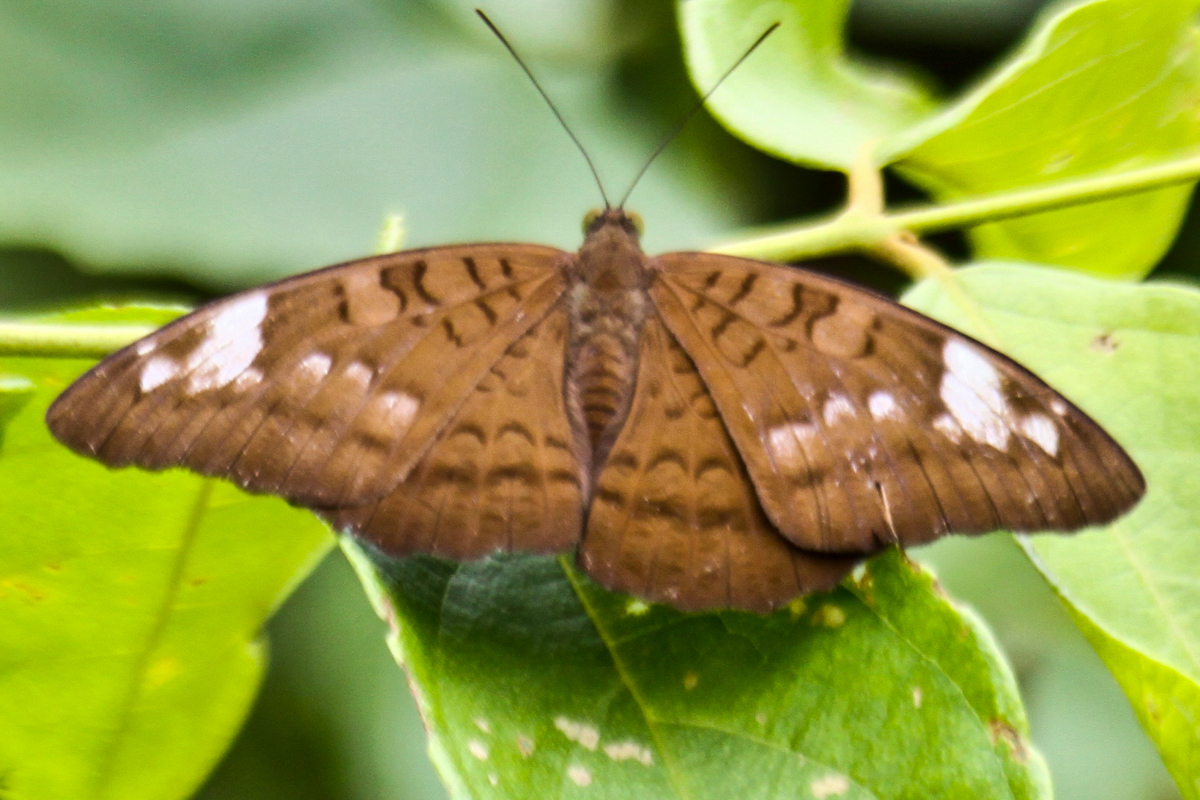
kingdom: Animalia
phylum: Arthropoda
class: Insecta
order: Lepidoptera
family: Nymphalidae
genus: Tanaecia
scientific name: Tanaecia julii
